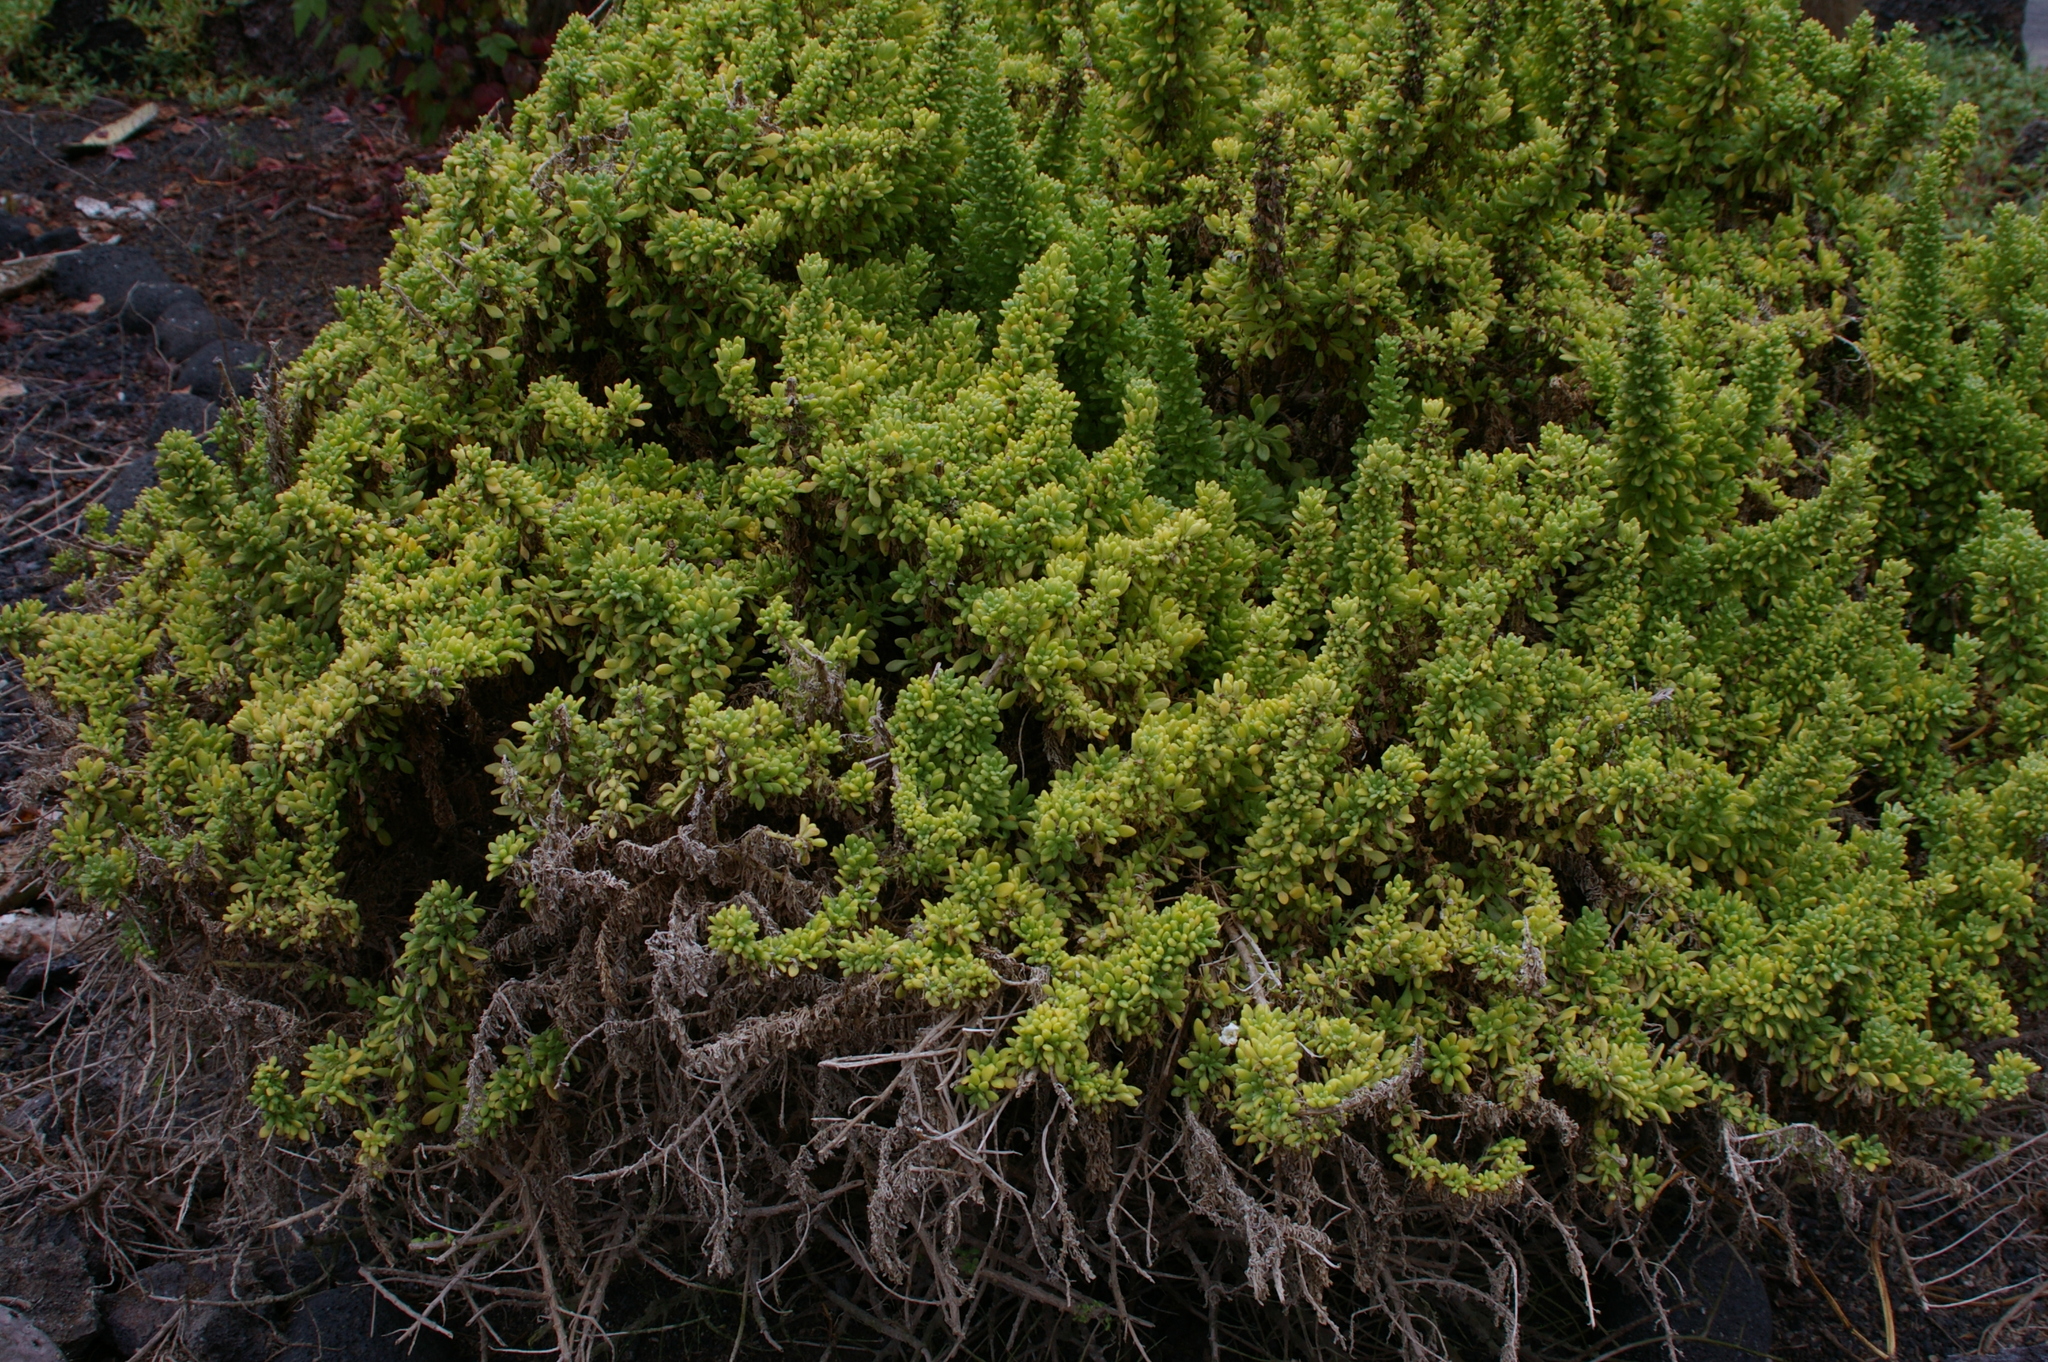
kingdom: Plantae
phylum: Tracheophyta
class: Magnoliopsida
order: Solanales
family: Solanaceae
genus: Nolana
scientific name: Nolana galapagensis
